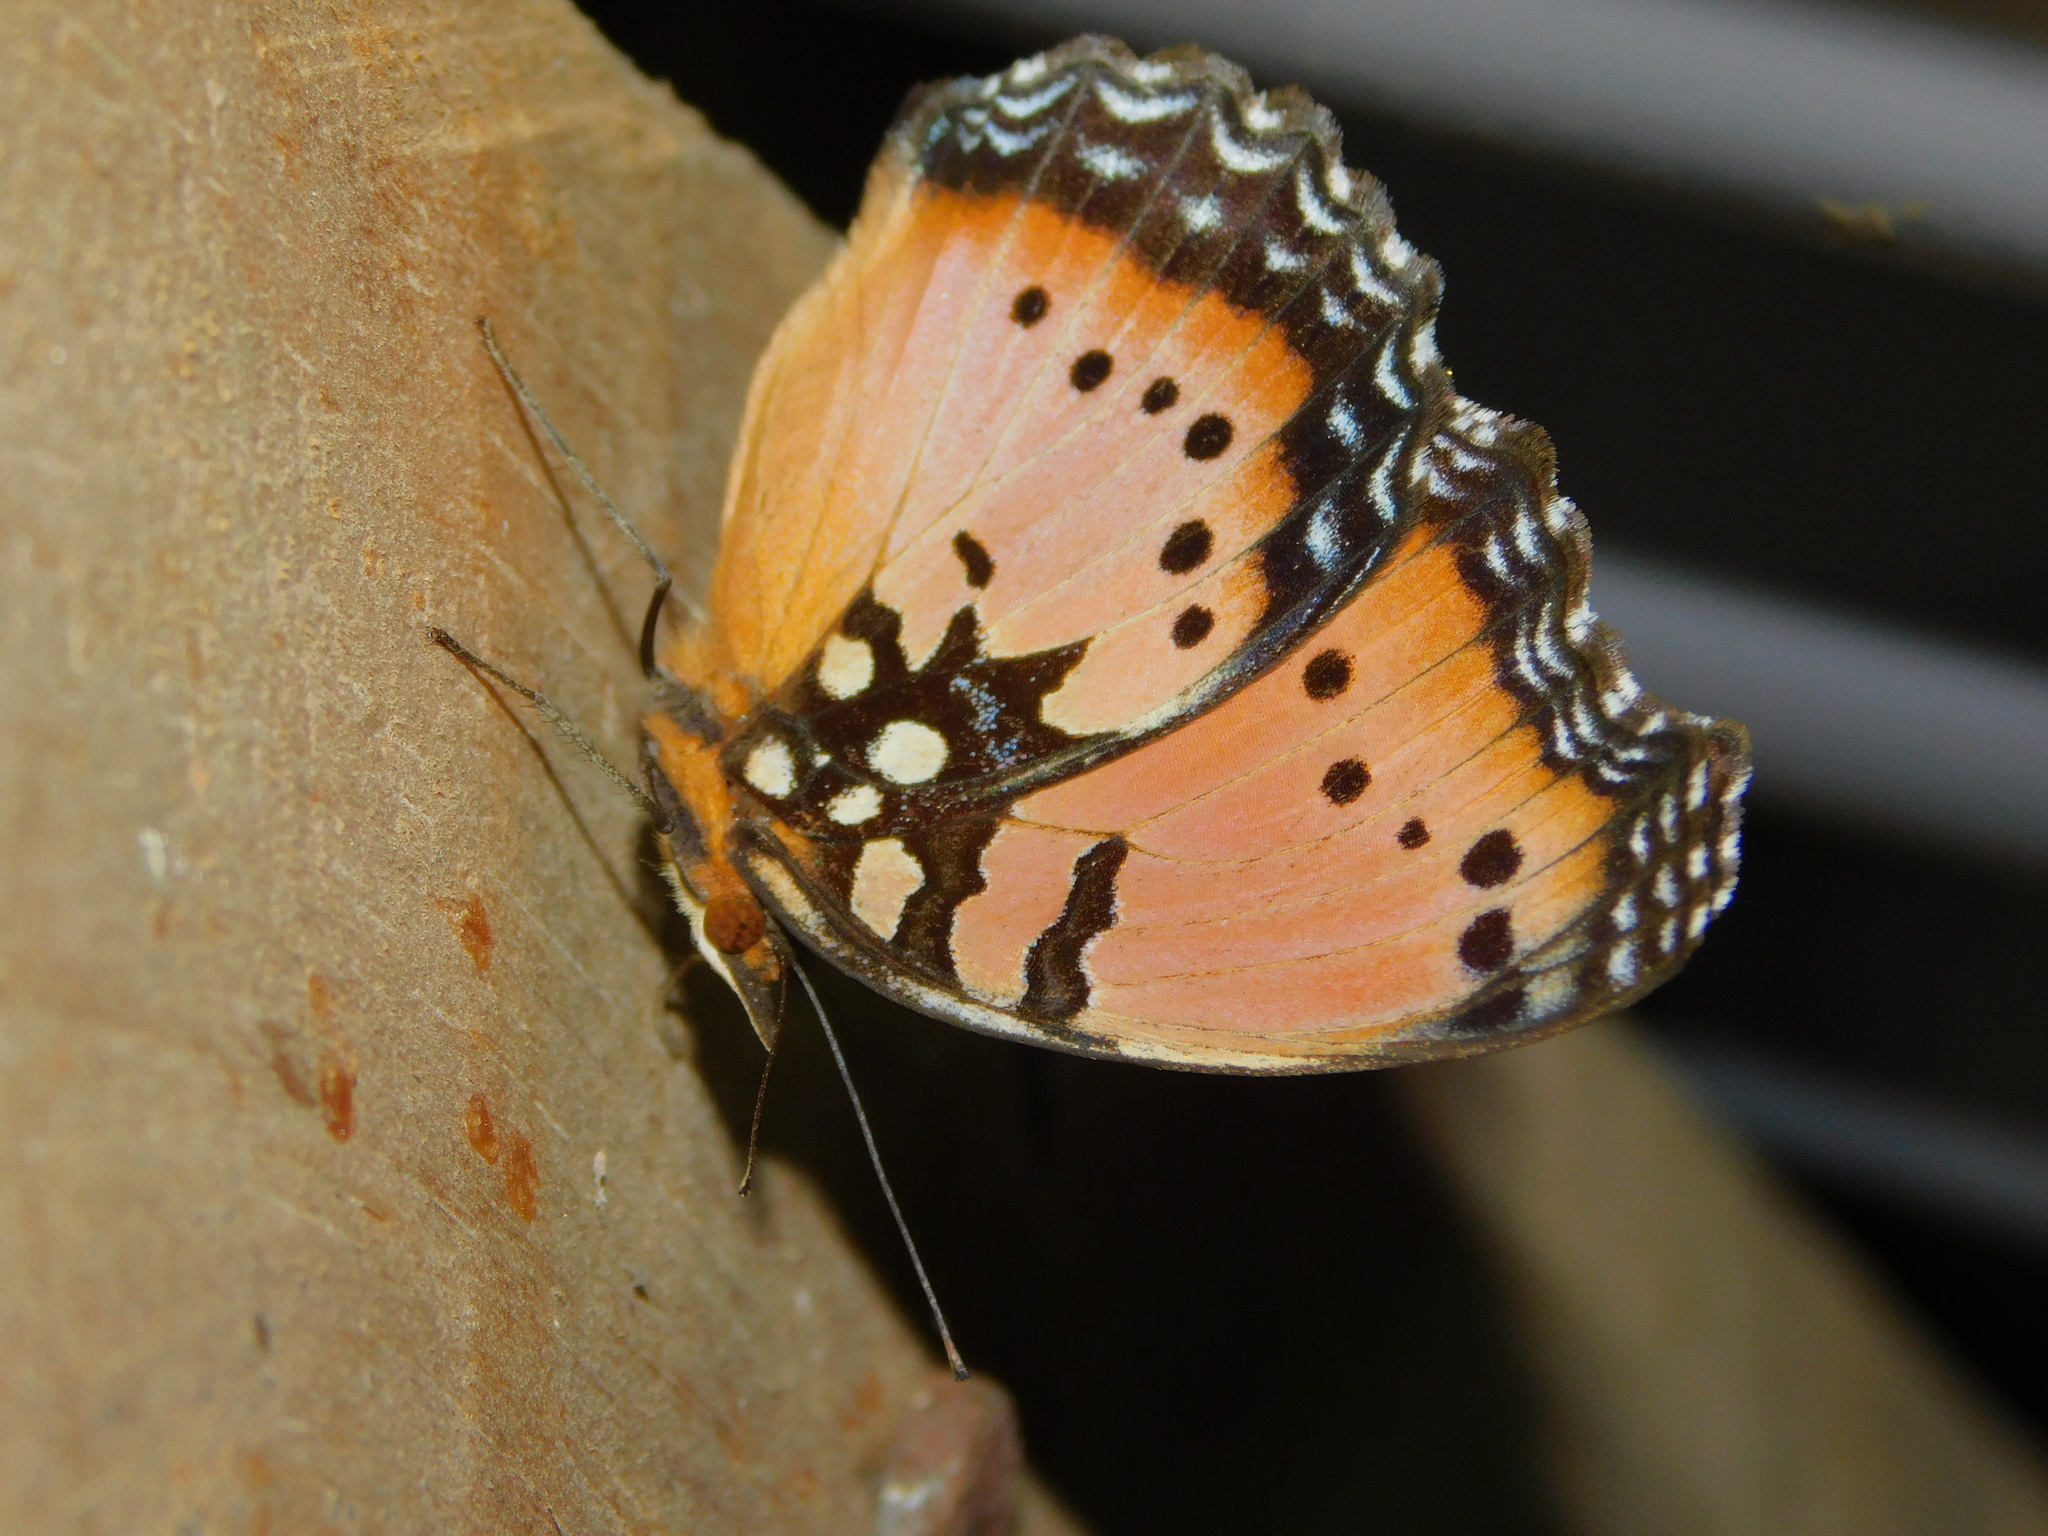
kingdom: Animalia
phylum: Arthropoda
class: Insecta
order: Lepidoptera
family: Nymphalidae
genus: Precis
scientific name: Precis octavia
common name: Gaudy commodore
